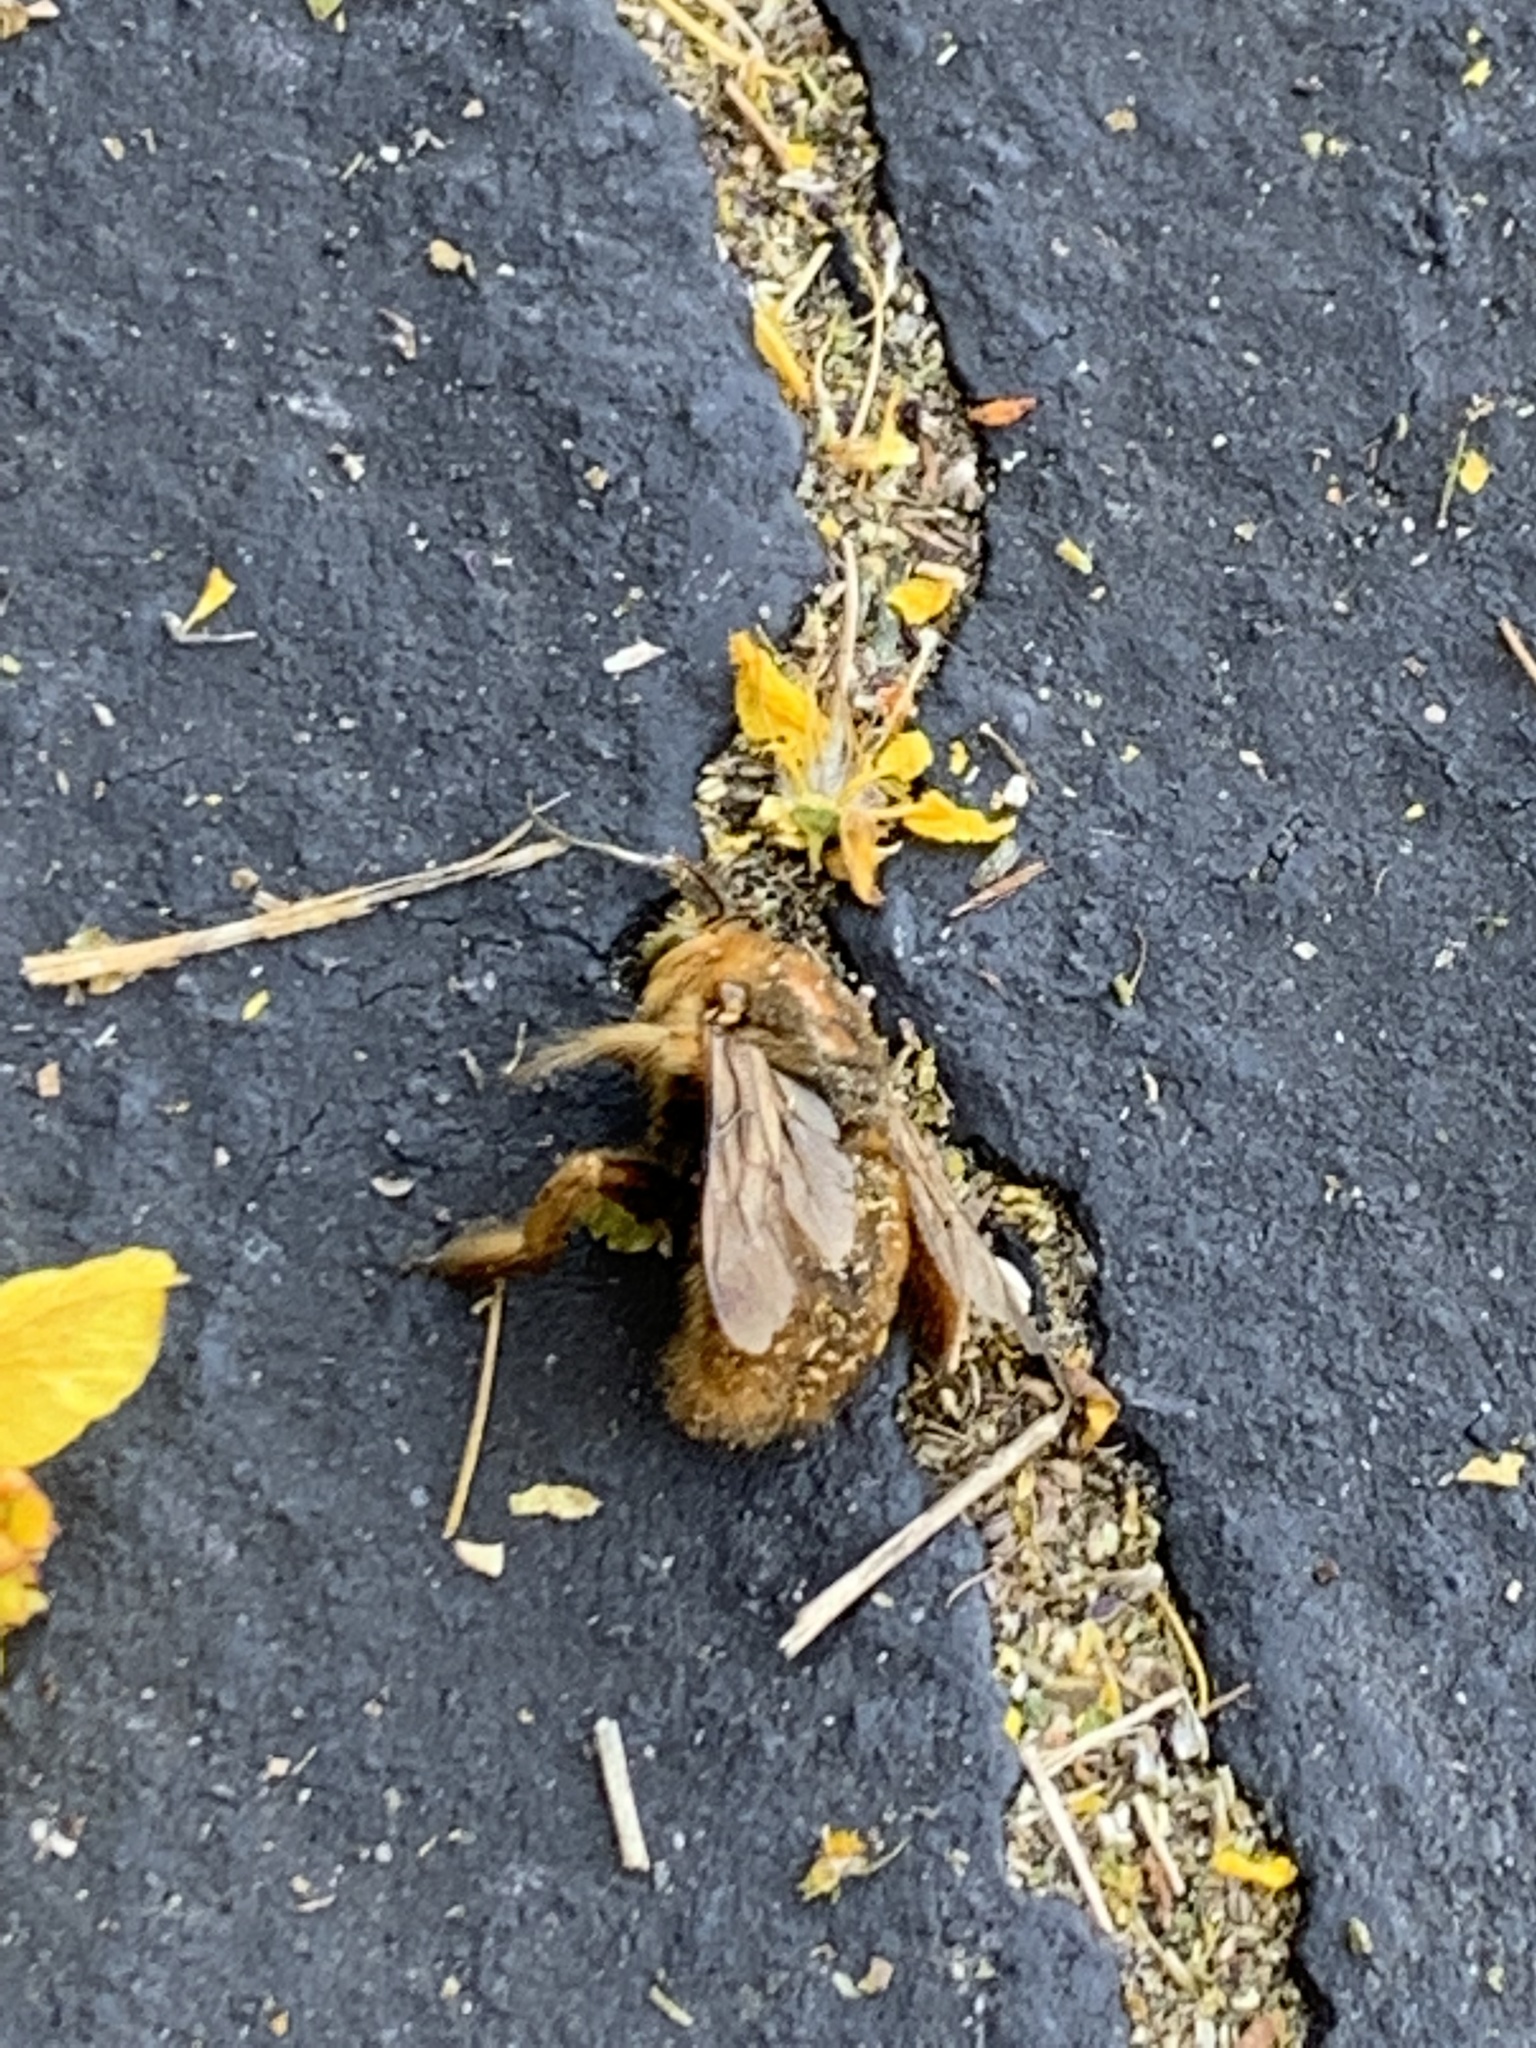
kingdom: Animalia
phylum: Arthropoda
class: Insecta
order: Hymenoptera
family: Apidae
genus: Xylocopa
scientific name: Xylocopa sonorina
